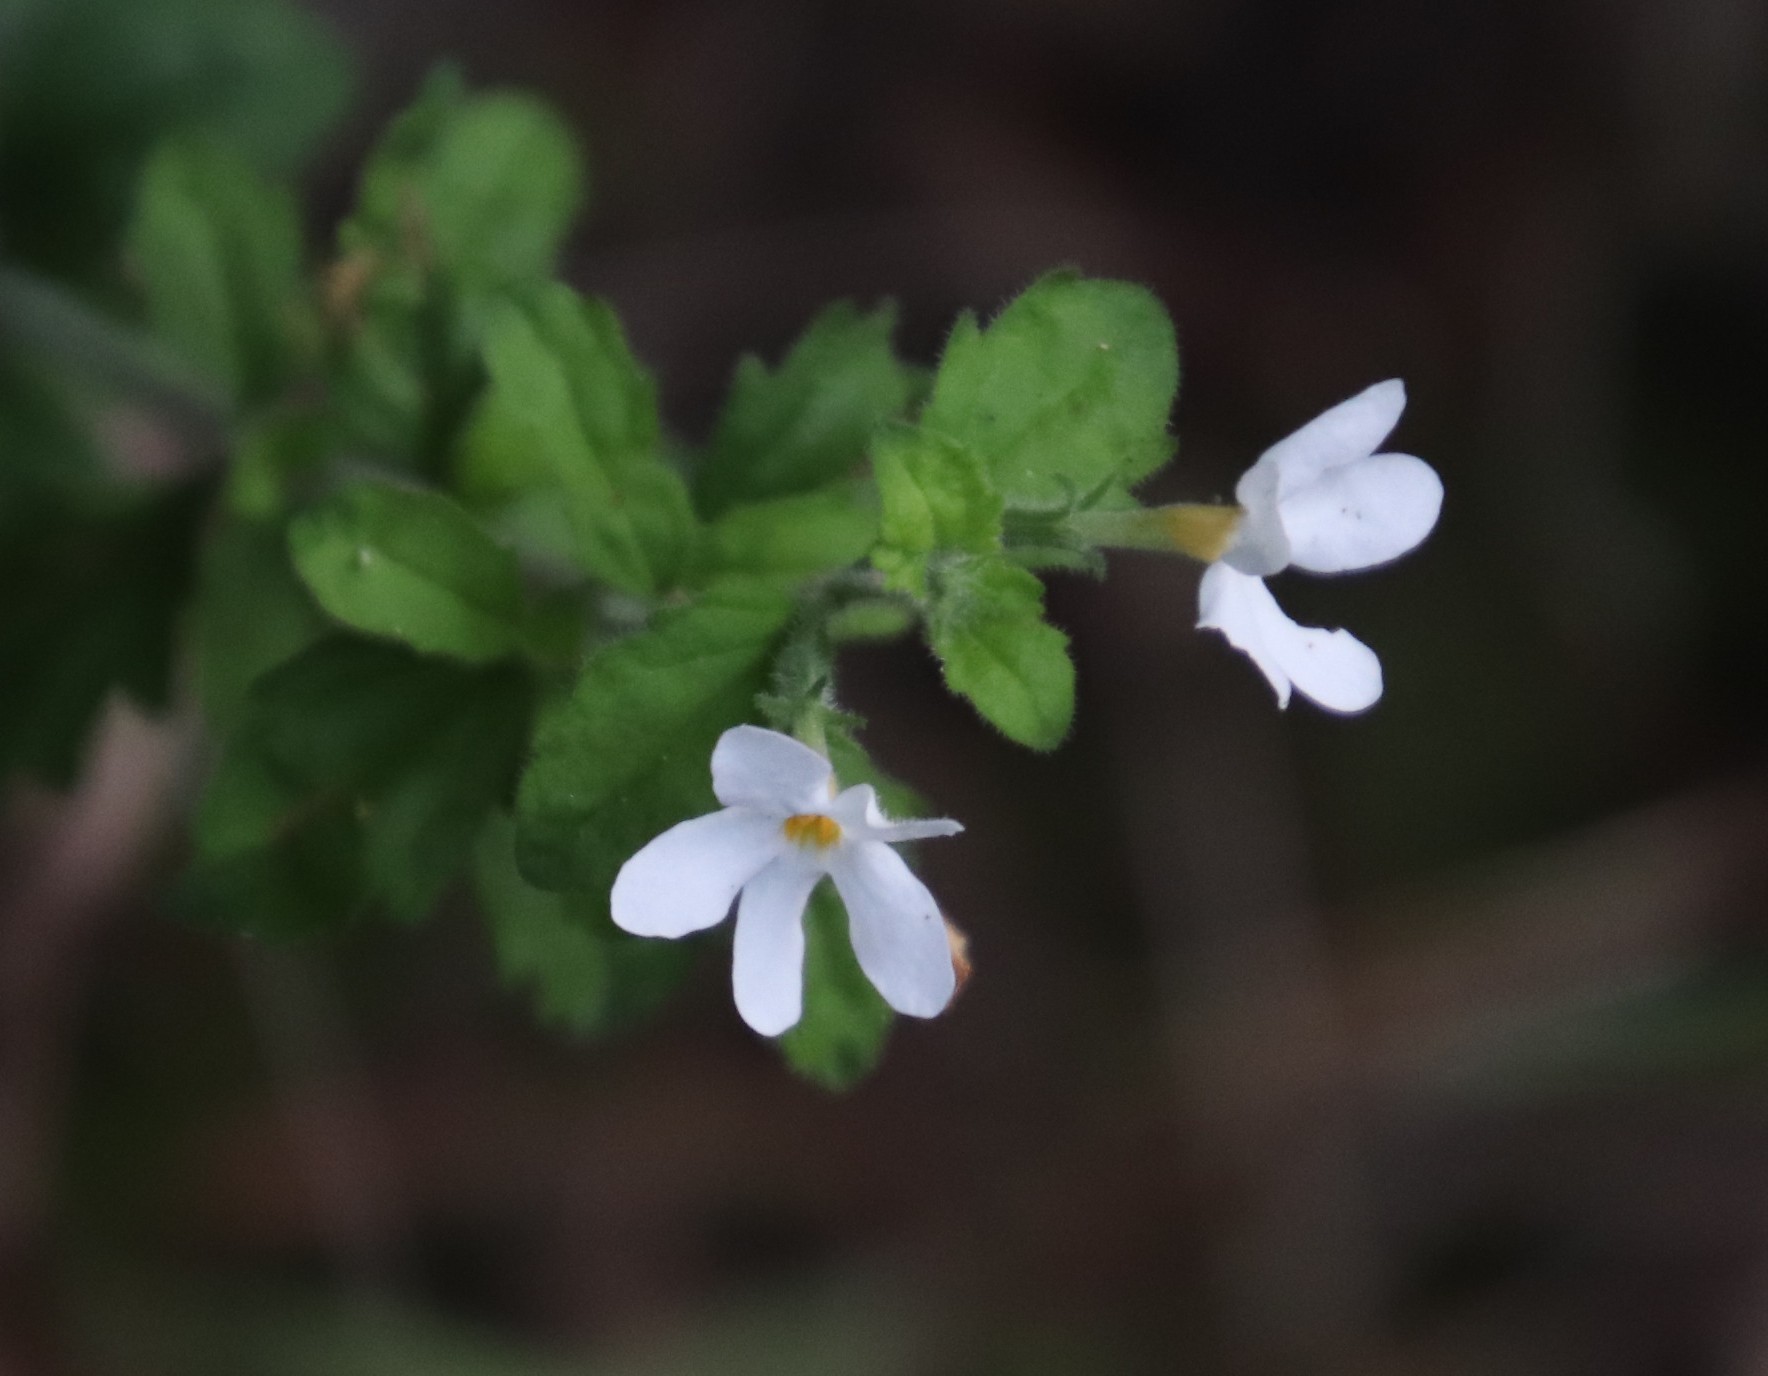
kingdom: Plantae
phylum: Tracheophyta
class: Magnoliopsida
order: Lamiales
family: Scrophulariaceae
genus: Chaenostoma
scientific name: Chaenostoma hispidum
